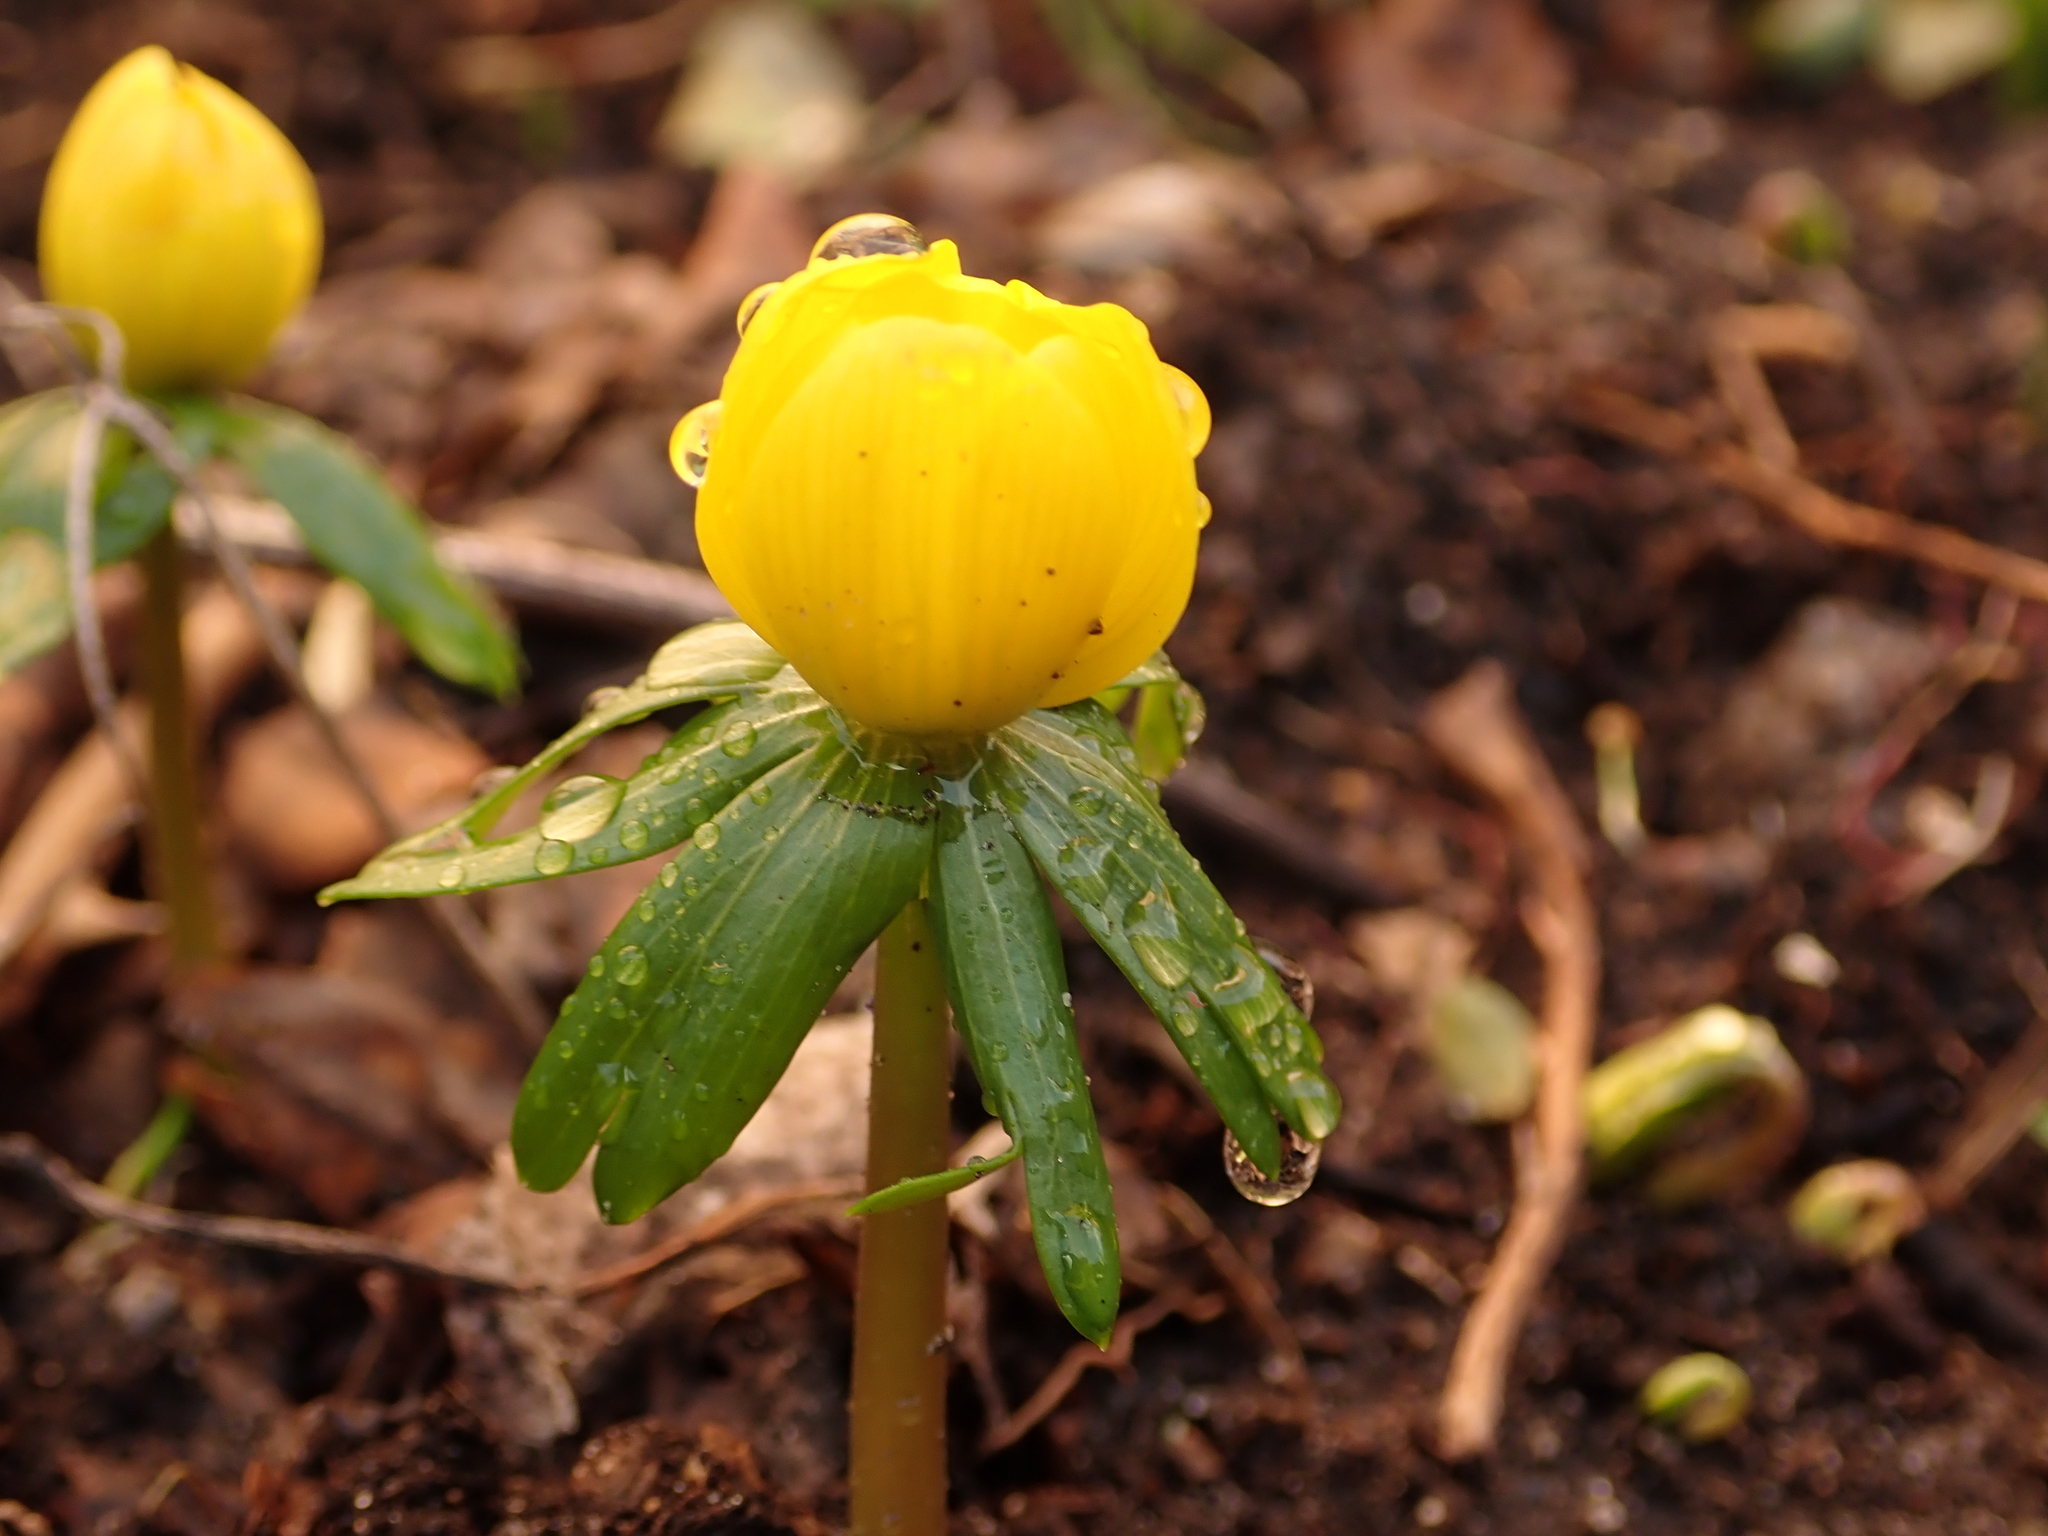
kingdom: Plantae
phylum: Tracheophyta
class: Magnoliopsida
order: Ranunculales
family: Ranunculaceae
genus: Eranthis
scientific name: Eranthis hyemalis
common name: Winter aconite
